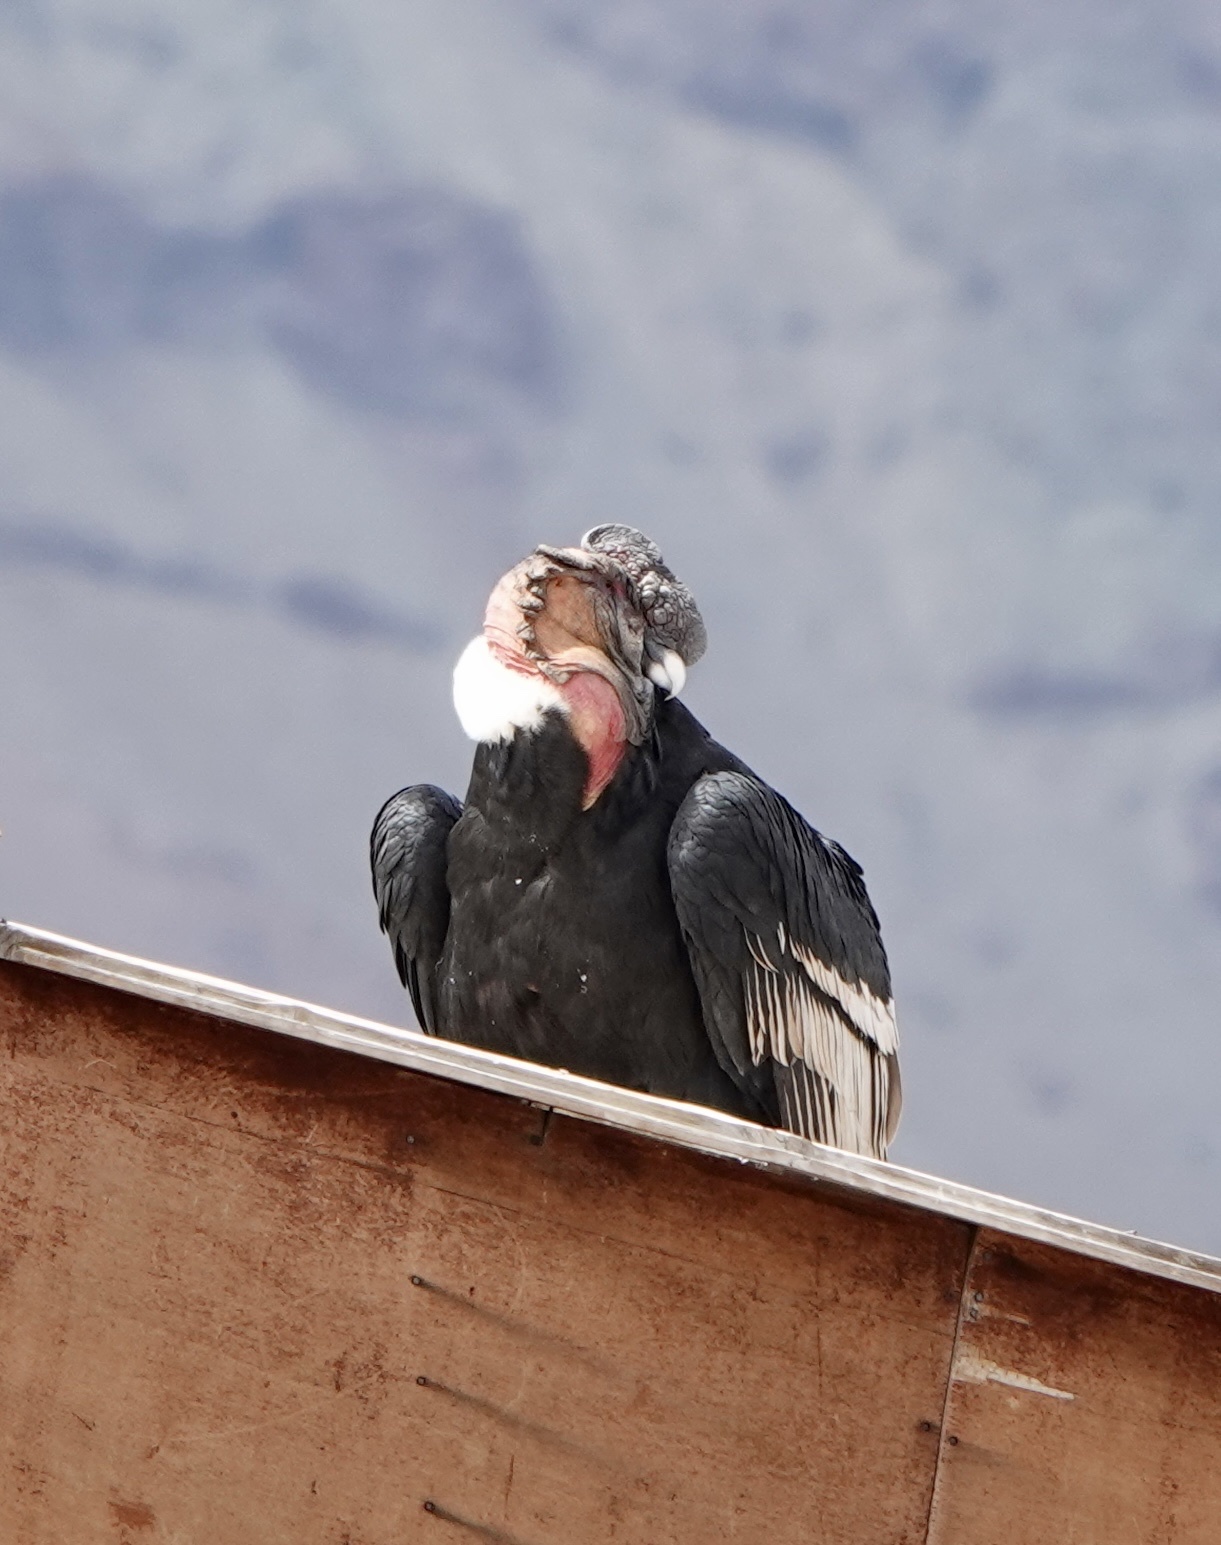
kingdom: Animalia
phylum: Chordata
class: Aves
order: Accipitriformes
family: Cathartidae
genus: Vultur
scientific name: Vultur gryphus
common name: Andean condor
